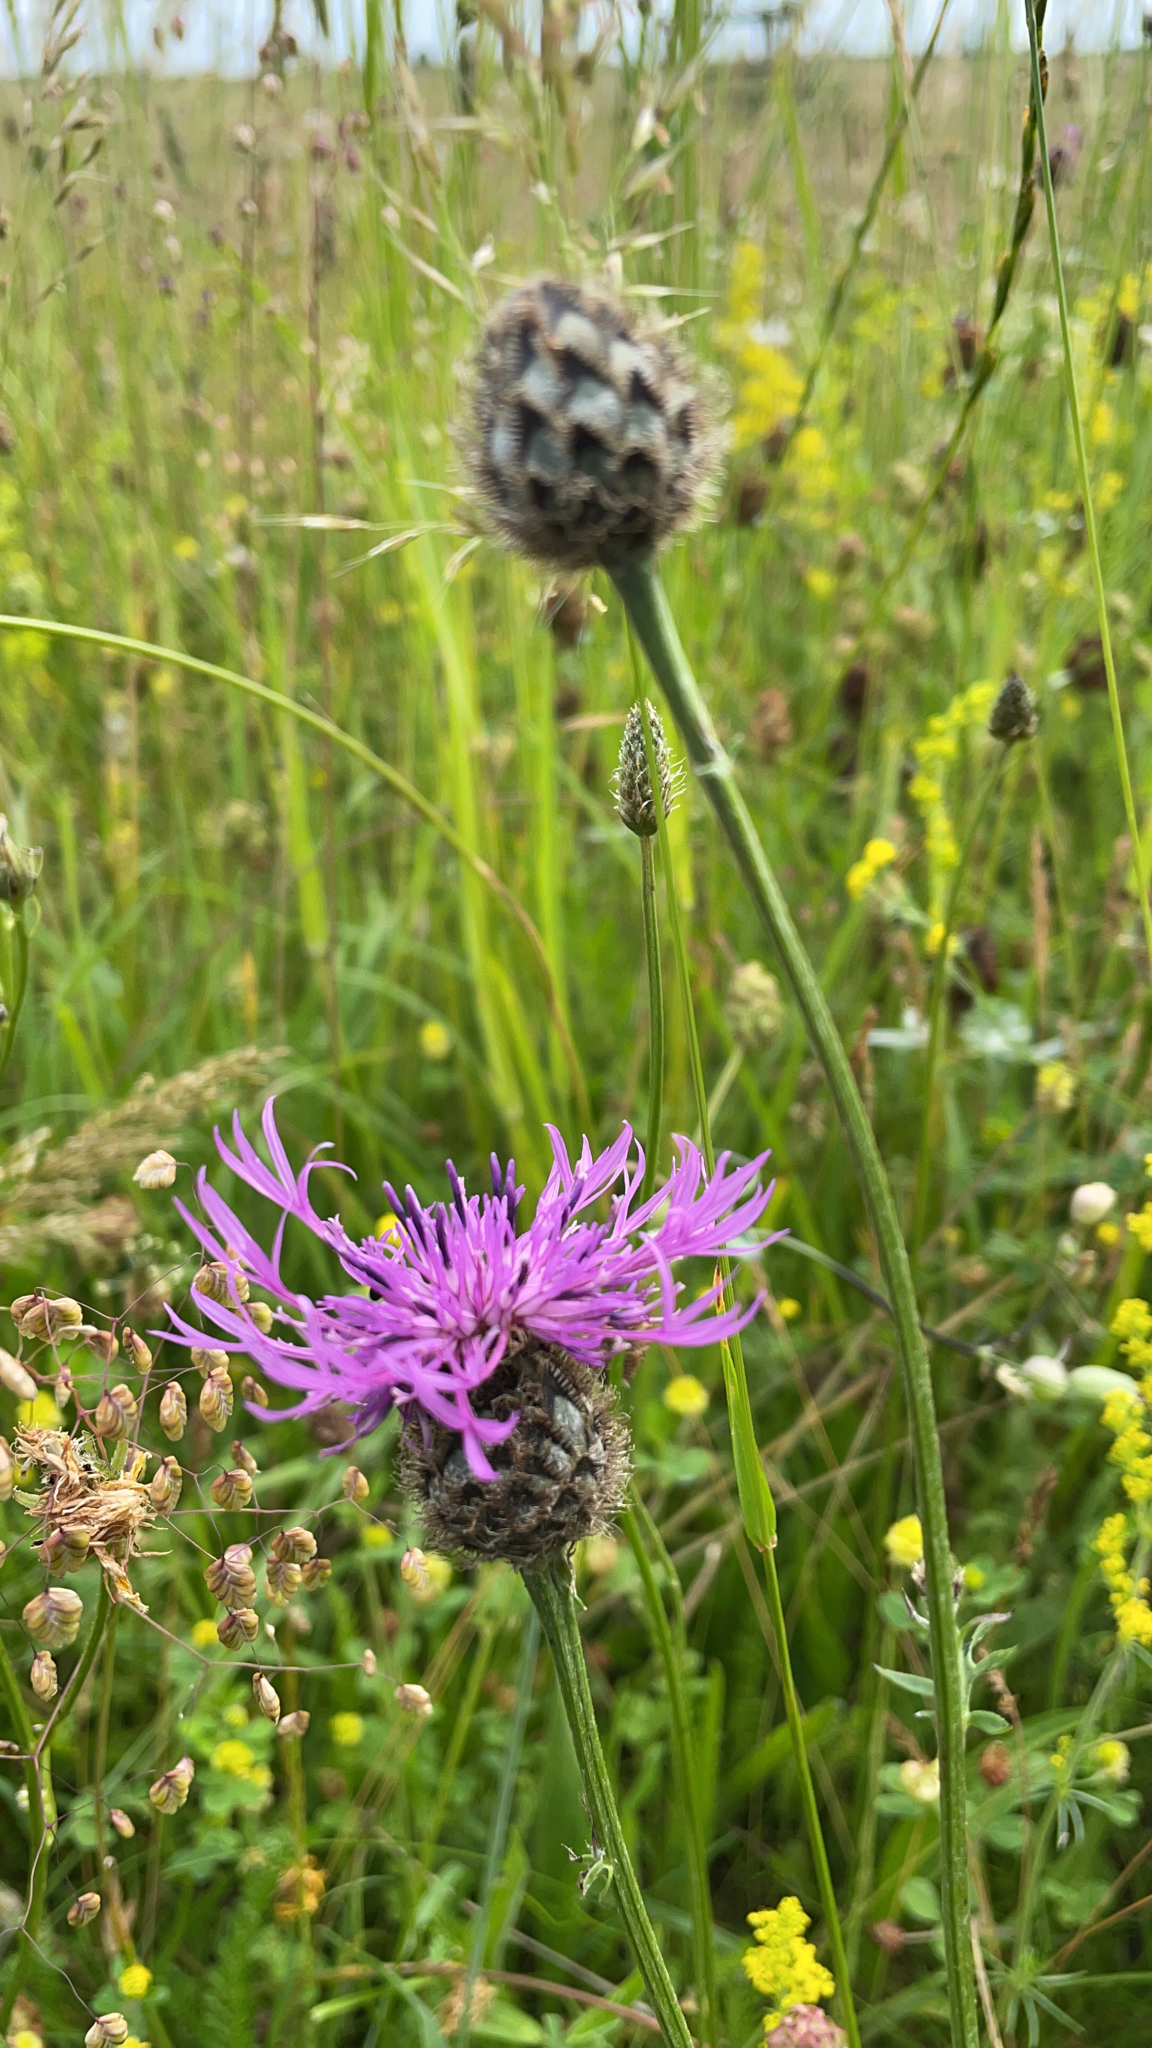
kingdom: Plantae
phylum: Tracheophyta
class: Magnoliopsida
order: Asterales
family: Asteraceae
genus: Centaurea
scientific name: Centaurea scabiosa
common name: Greater knapweed
